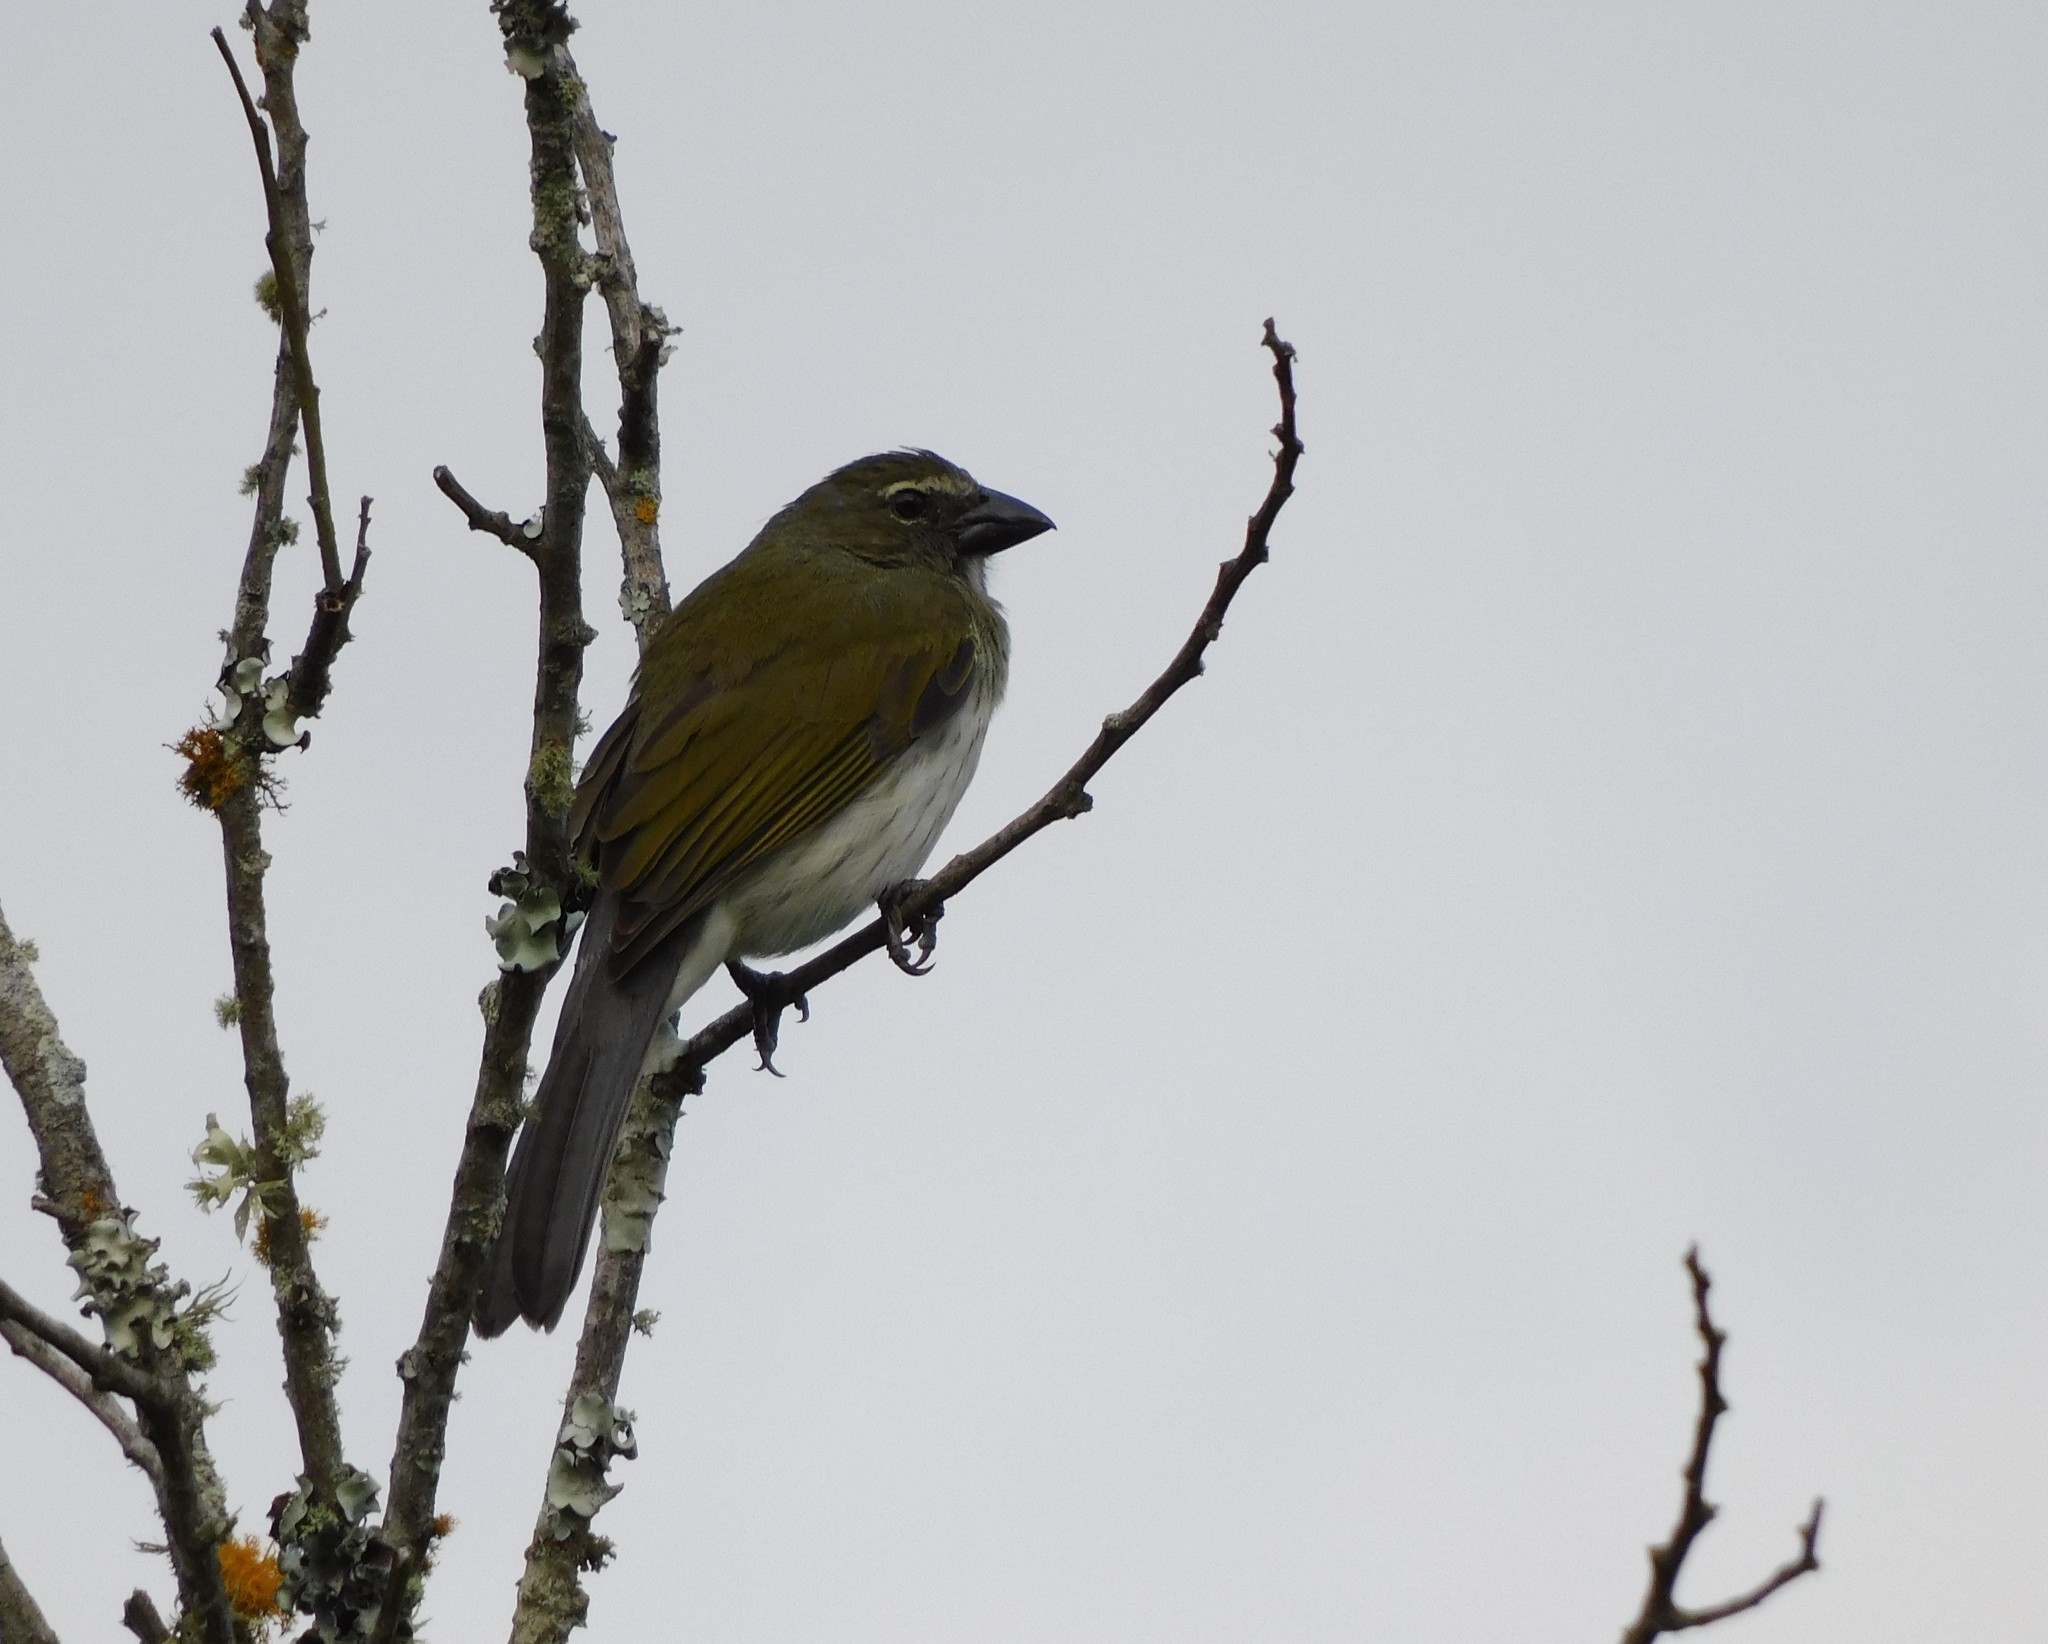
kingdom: Animalia
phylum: Chordata
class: Aves
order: Passeriformes
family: Thraupidae
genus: Saltator
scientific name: Saltator striatipectus
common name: Streaked saltator
